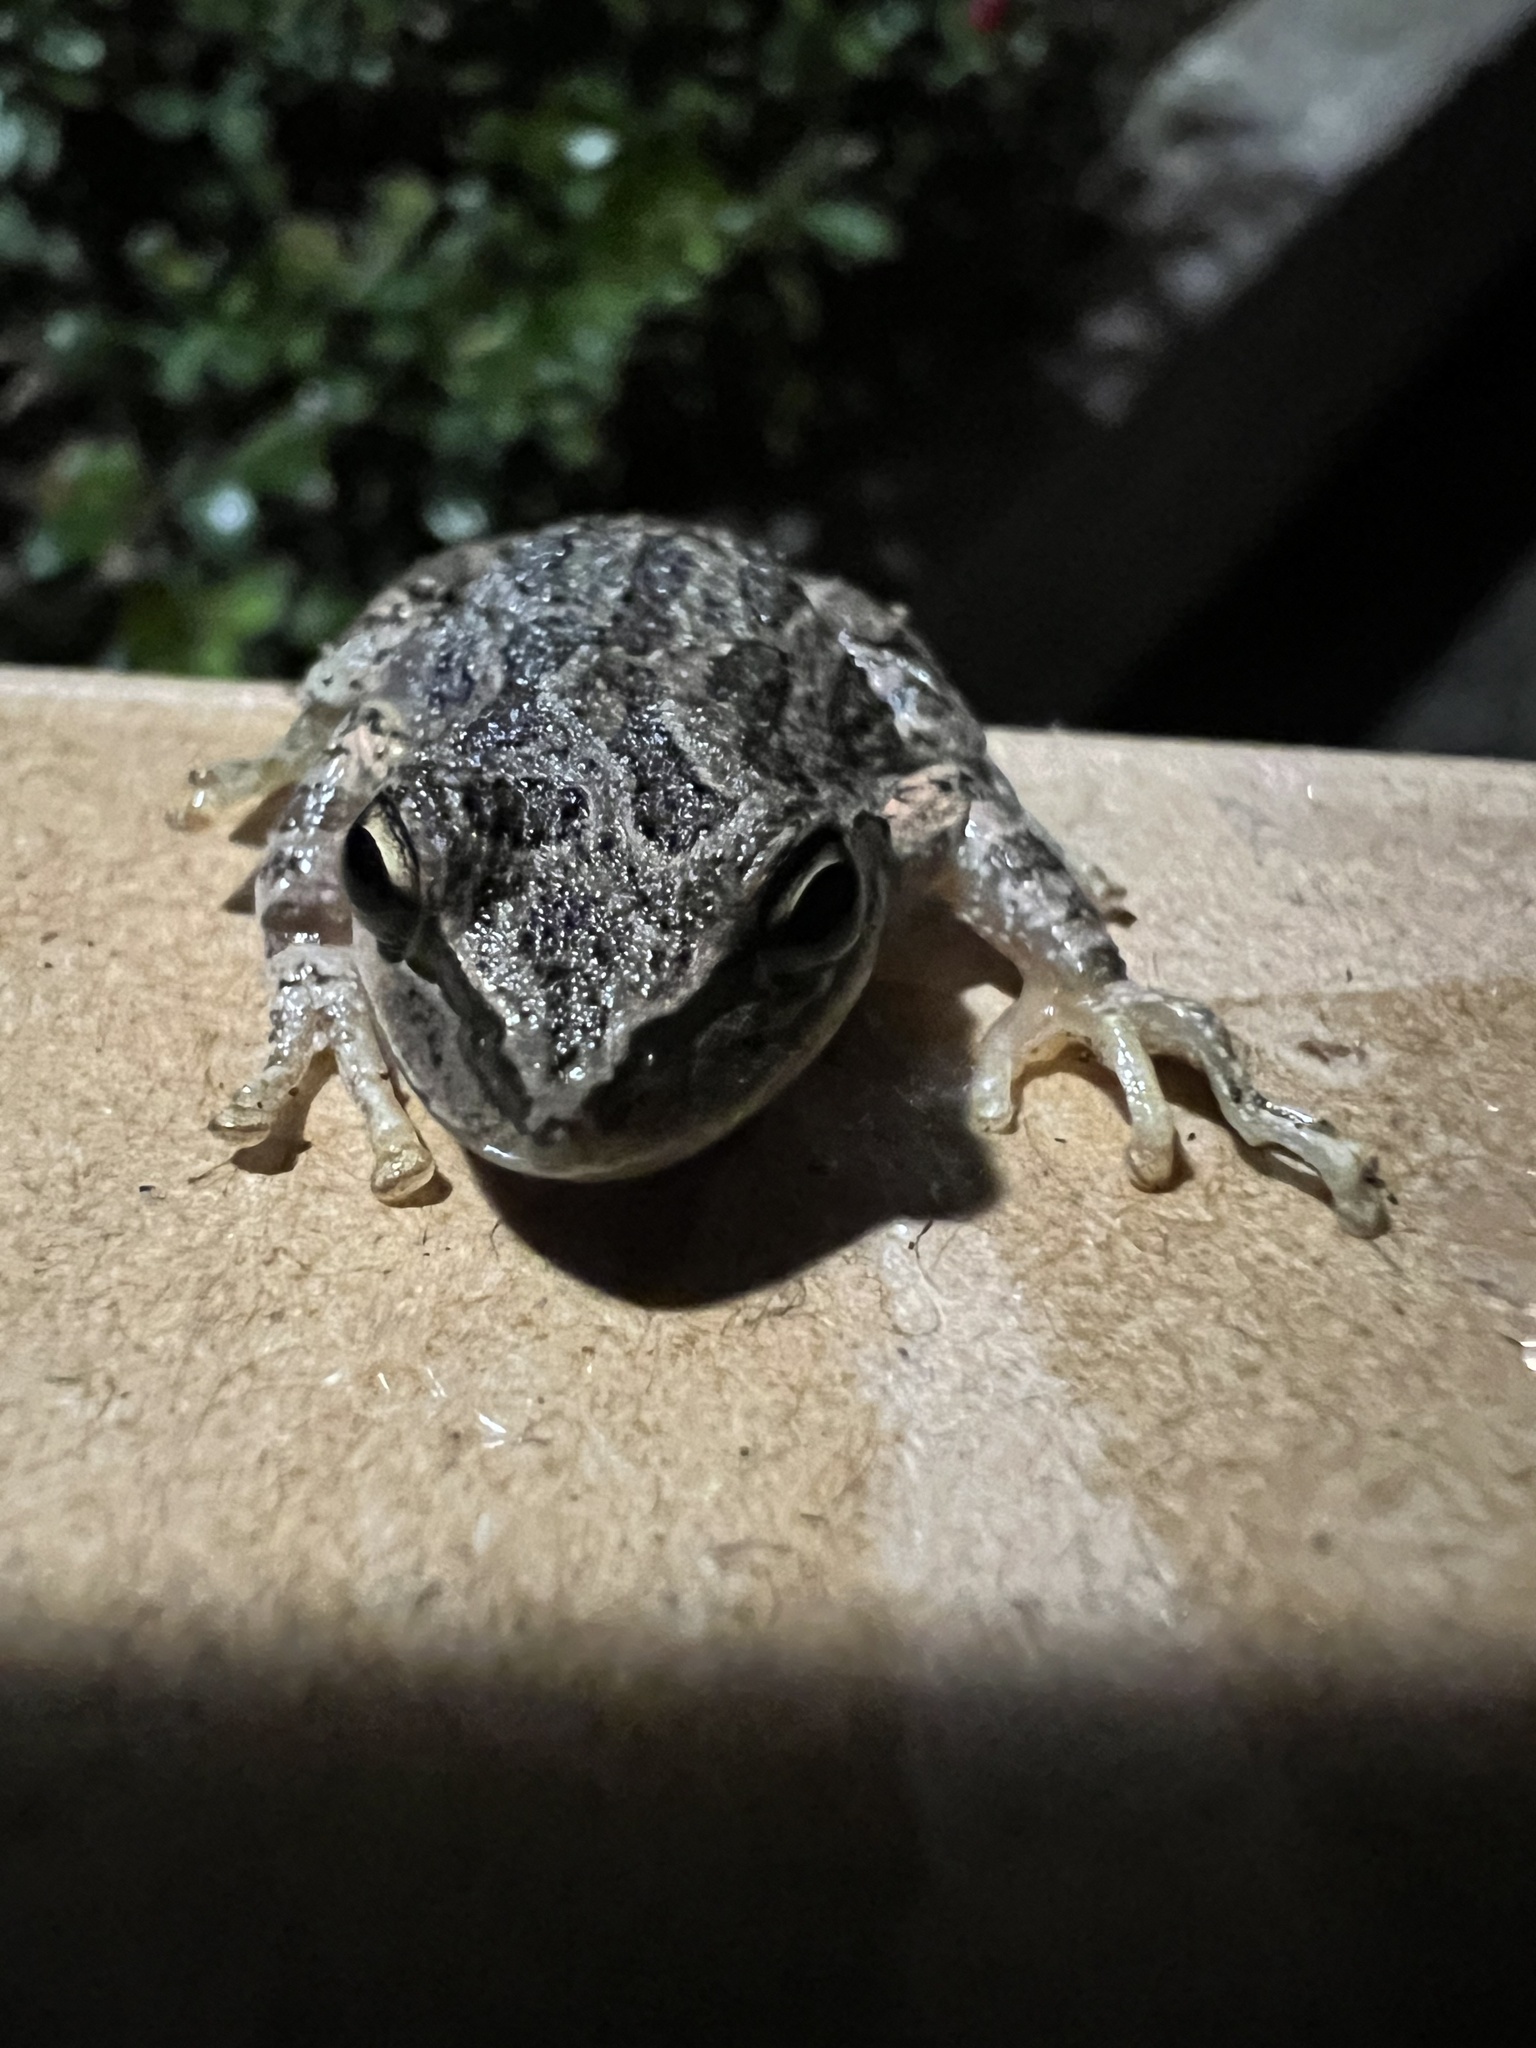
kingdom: Animalia
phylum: Chordata
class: Amphibia
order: Anura
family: Hylidae
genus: Pseudacris
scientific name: Pseudacris regilla
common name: Pacific chorus frog
